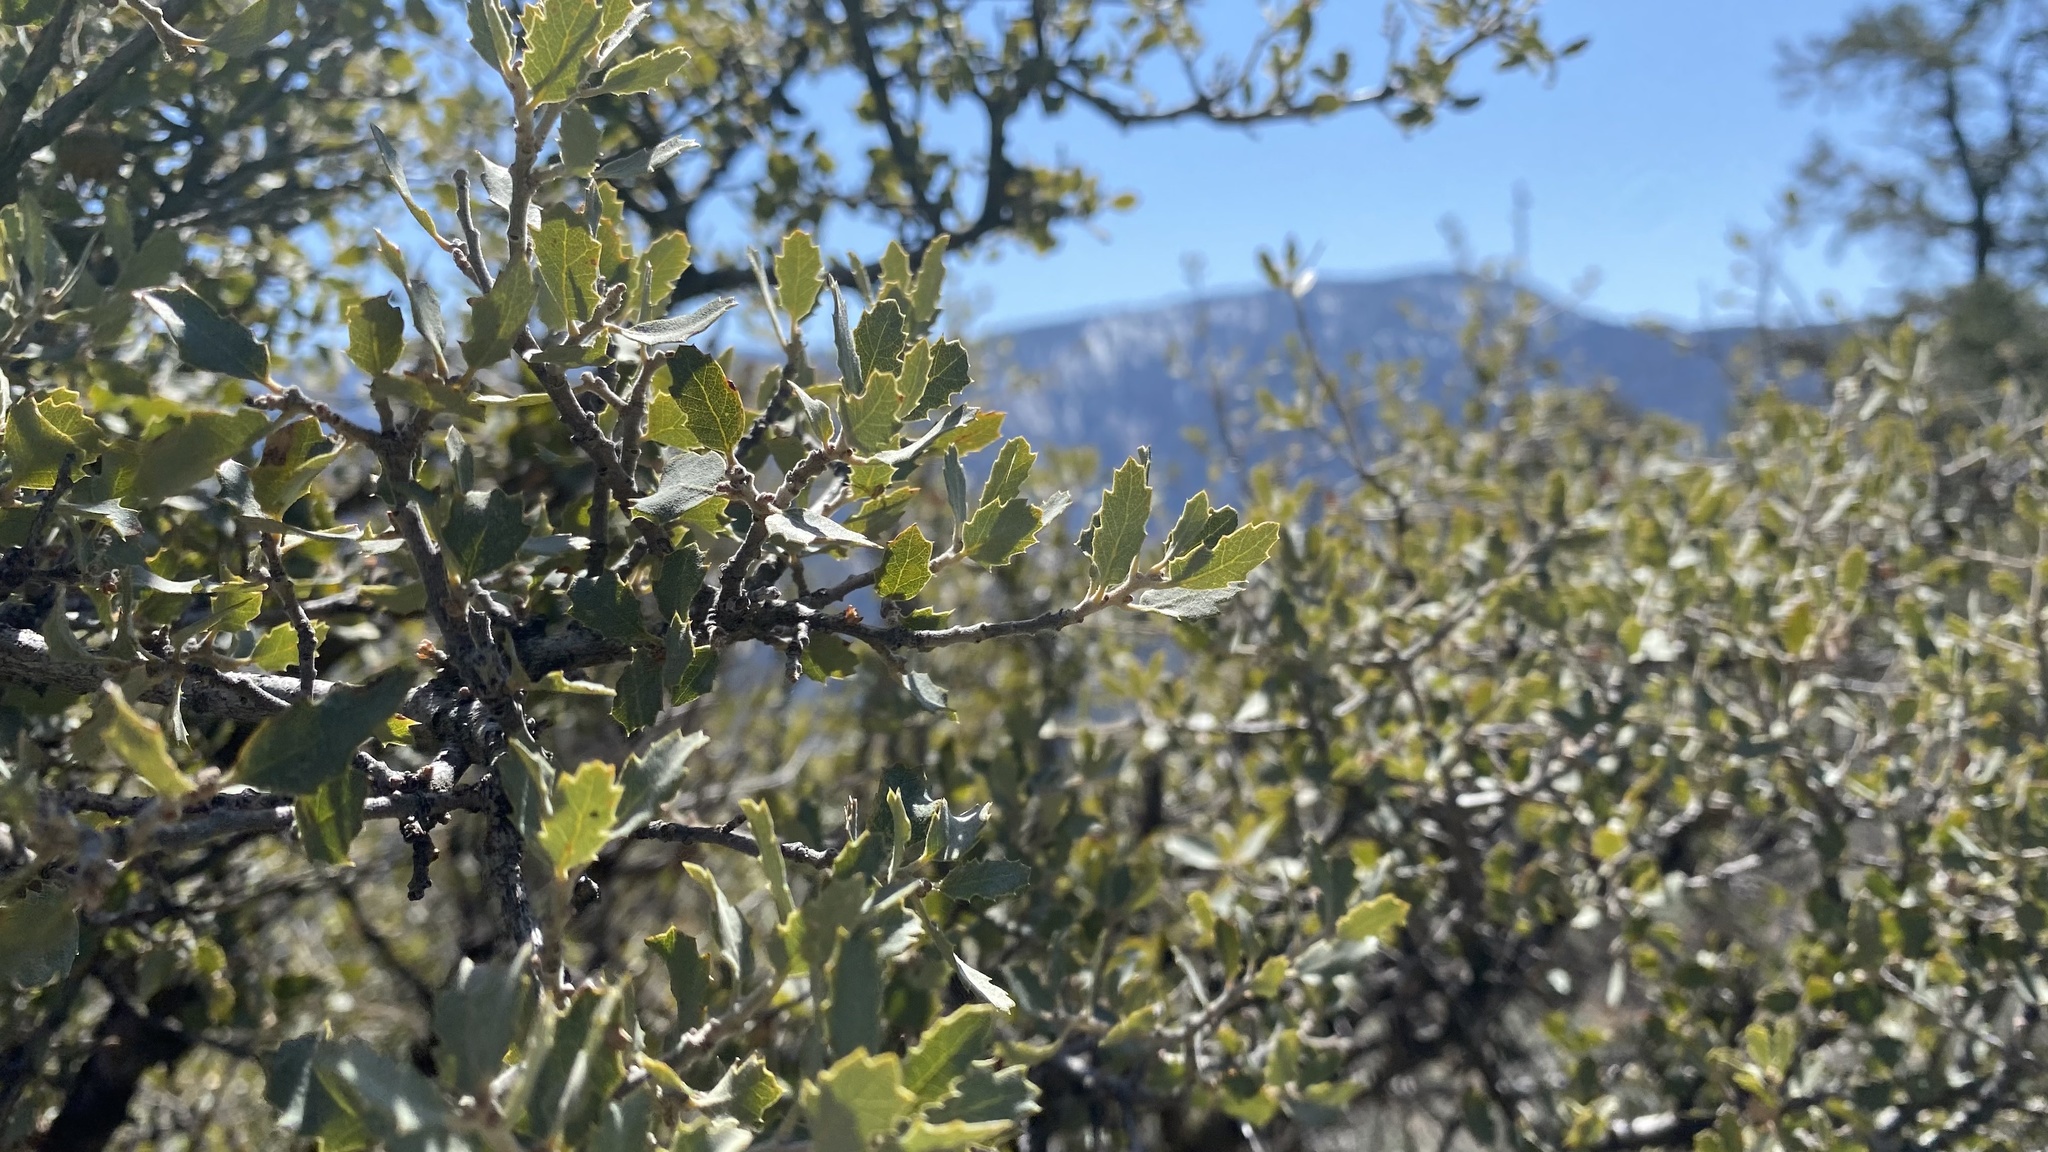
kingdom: Plantae
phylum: Tracheophyta
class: Magnoliopsida
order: Fagales
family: Fagaceae
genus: Quercus
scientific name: Quercus
